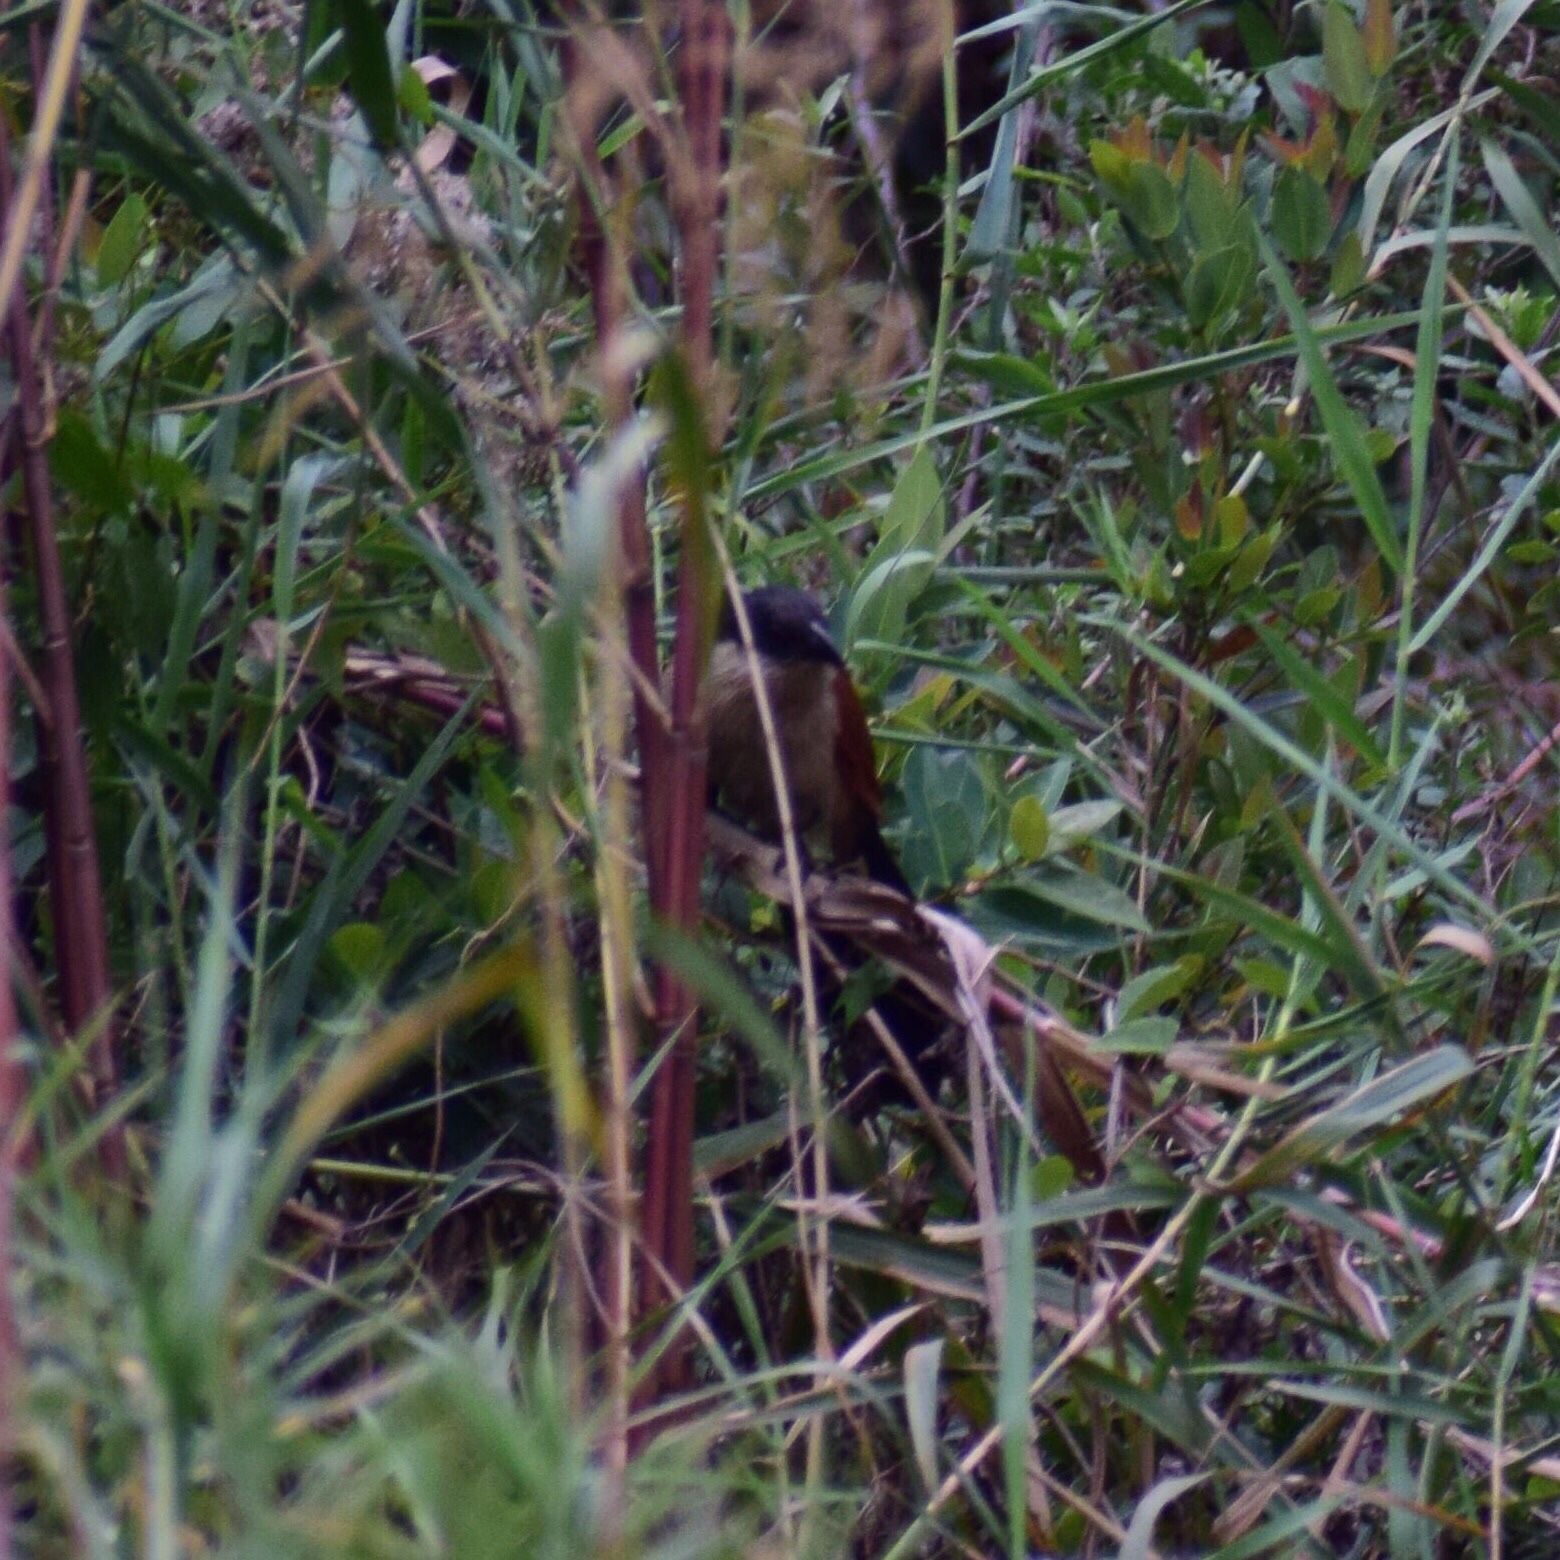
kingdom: Animalia
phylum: Chordata
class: Aves
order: Cuculiformes
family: Cuculidae
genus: Centropus
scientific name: Centropus superciliosus
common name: White-browed coucal
